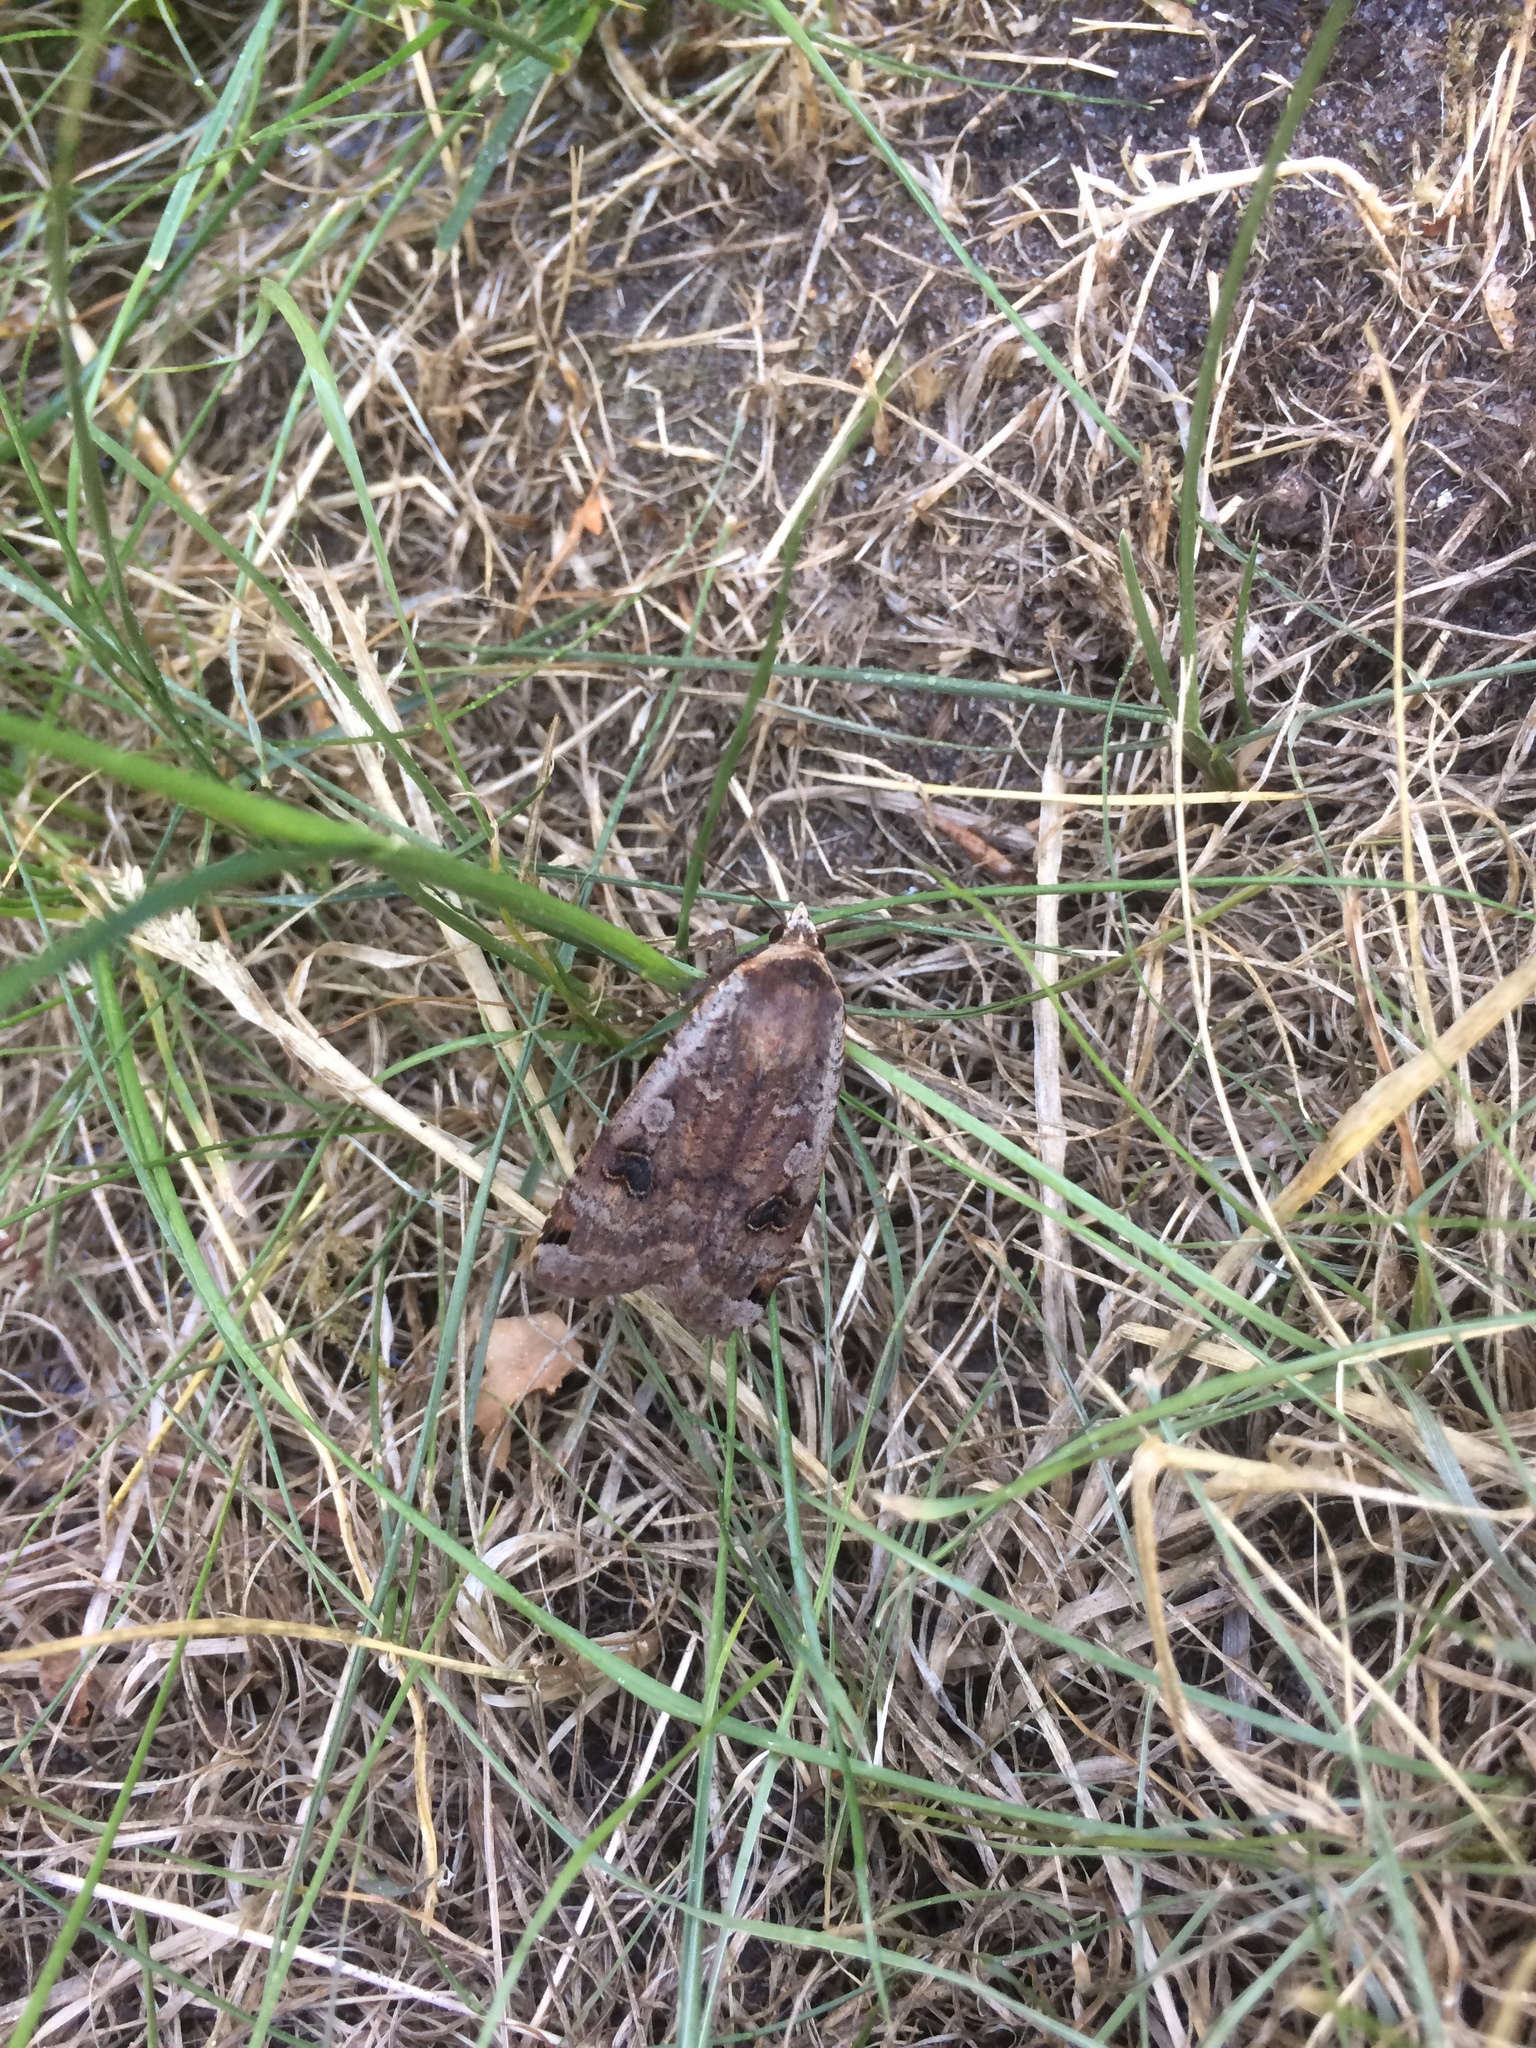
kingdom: Animalia
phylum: Arthropoda
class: Insecta
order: Lepidoptera
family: Noctuidae
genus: Noctua
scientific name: Noctua pronuba
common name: Large yellow underwing
